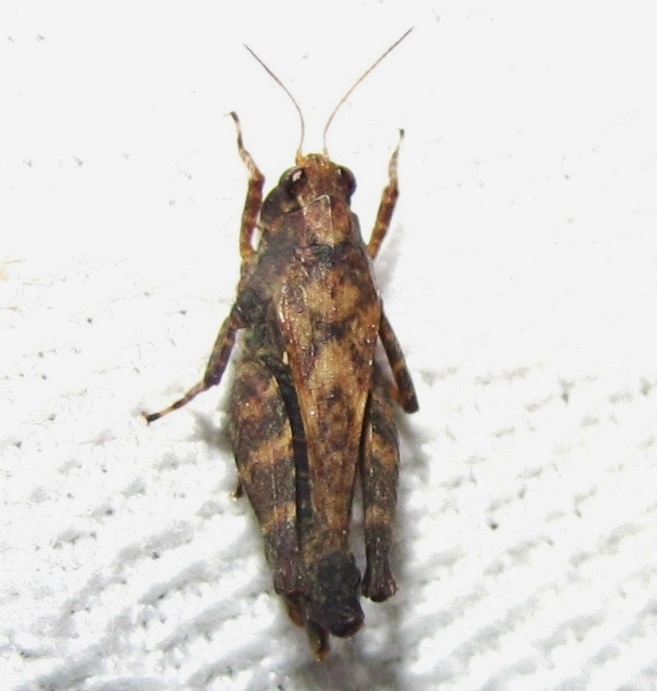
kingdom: Animalia
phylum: Arthropoda
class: Insecta
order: Orthoptera
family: Tetrigidae
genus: Tettigidea
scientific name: Tettigidea laterale
